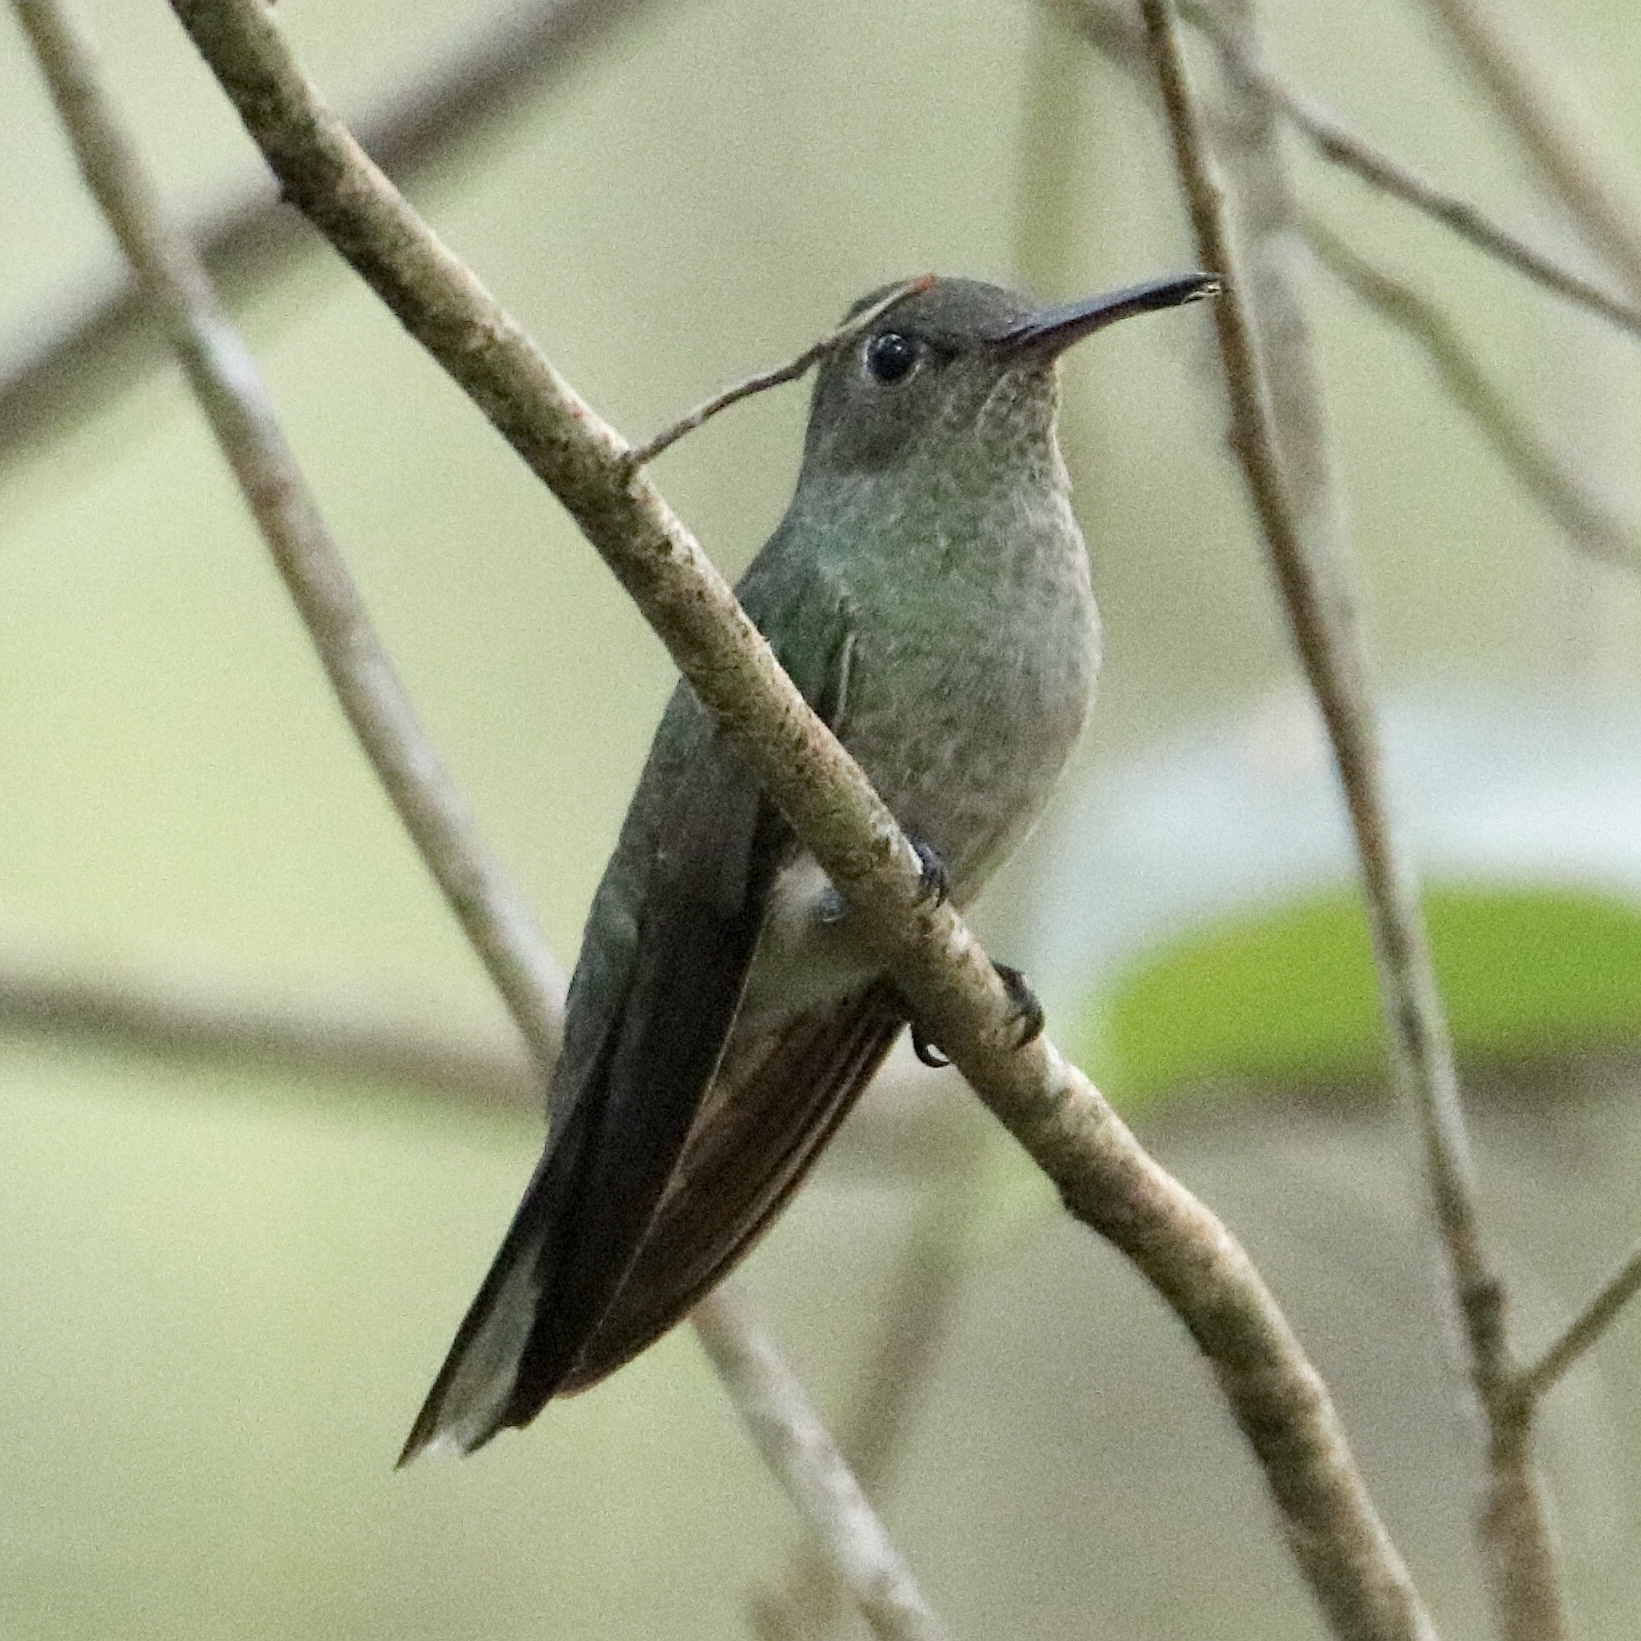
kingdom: Animalia
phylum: Chordata
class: Aves
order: Apodiformes
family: Trochilidae
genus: Phaeochroa
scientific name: Phaeochroa cuvierii
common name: Scaly-breasted hummingbird
